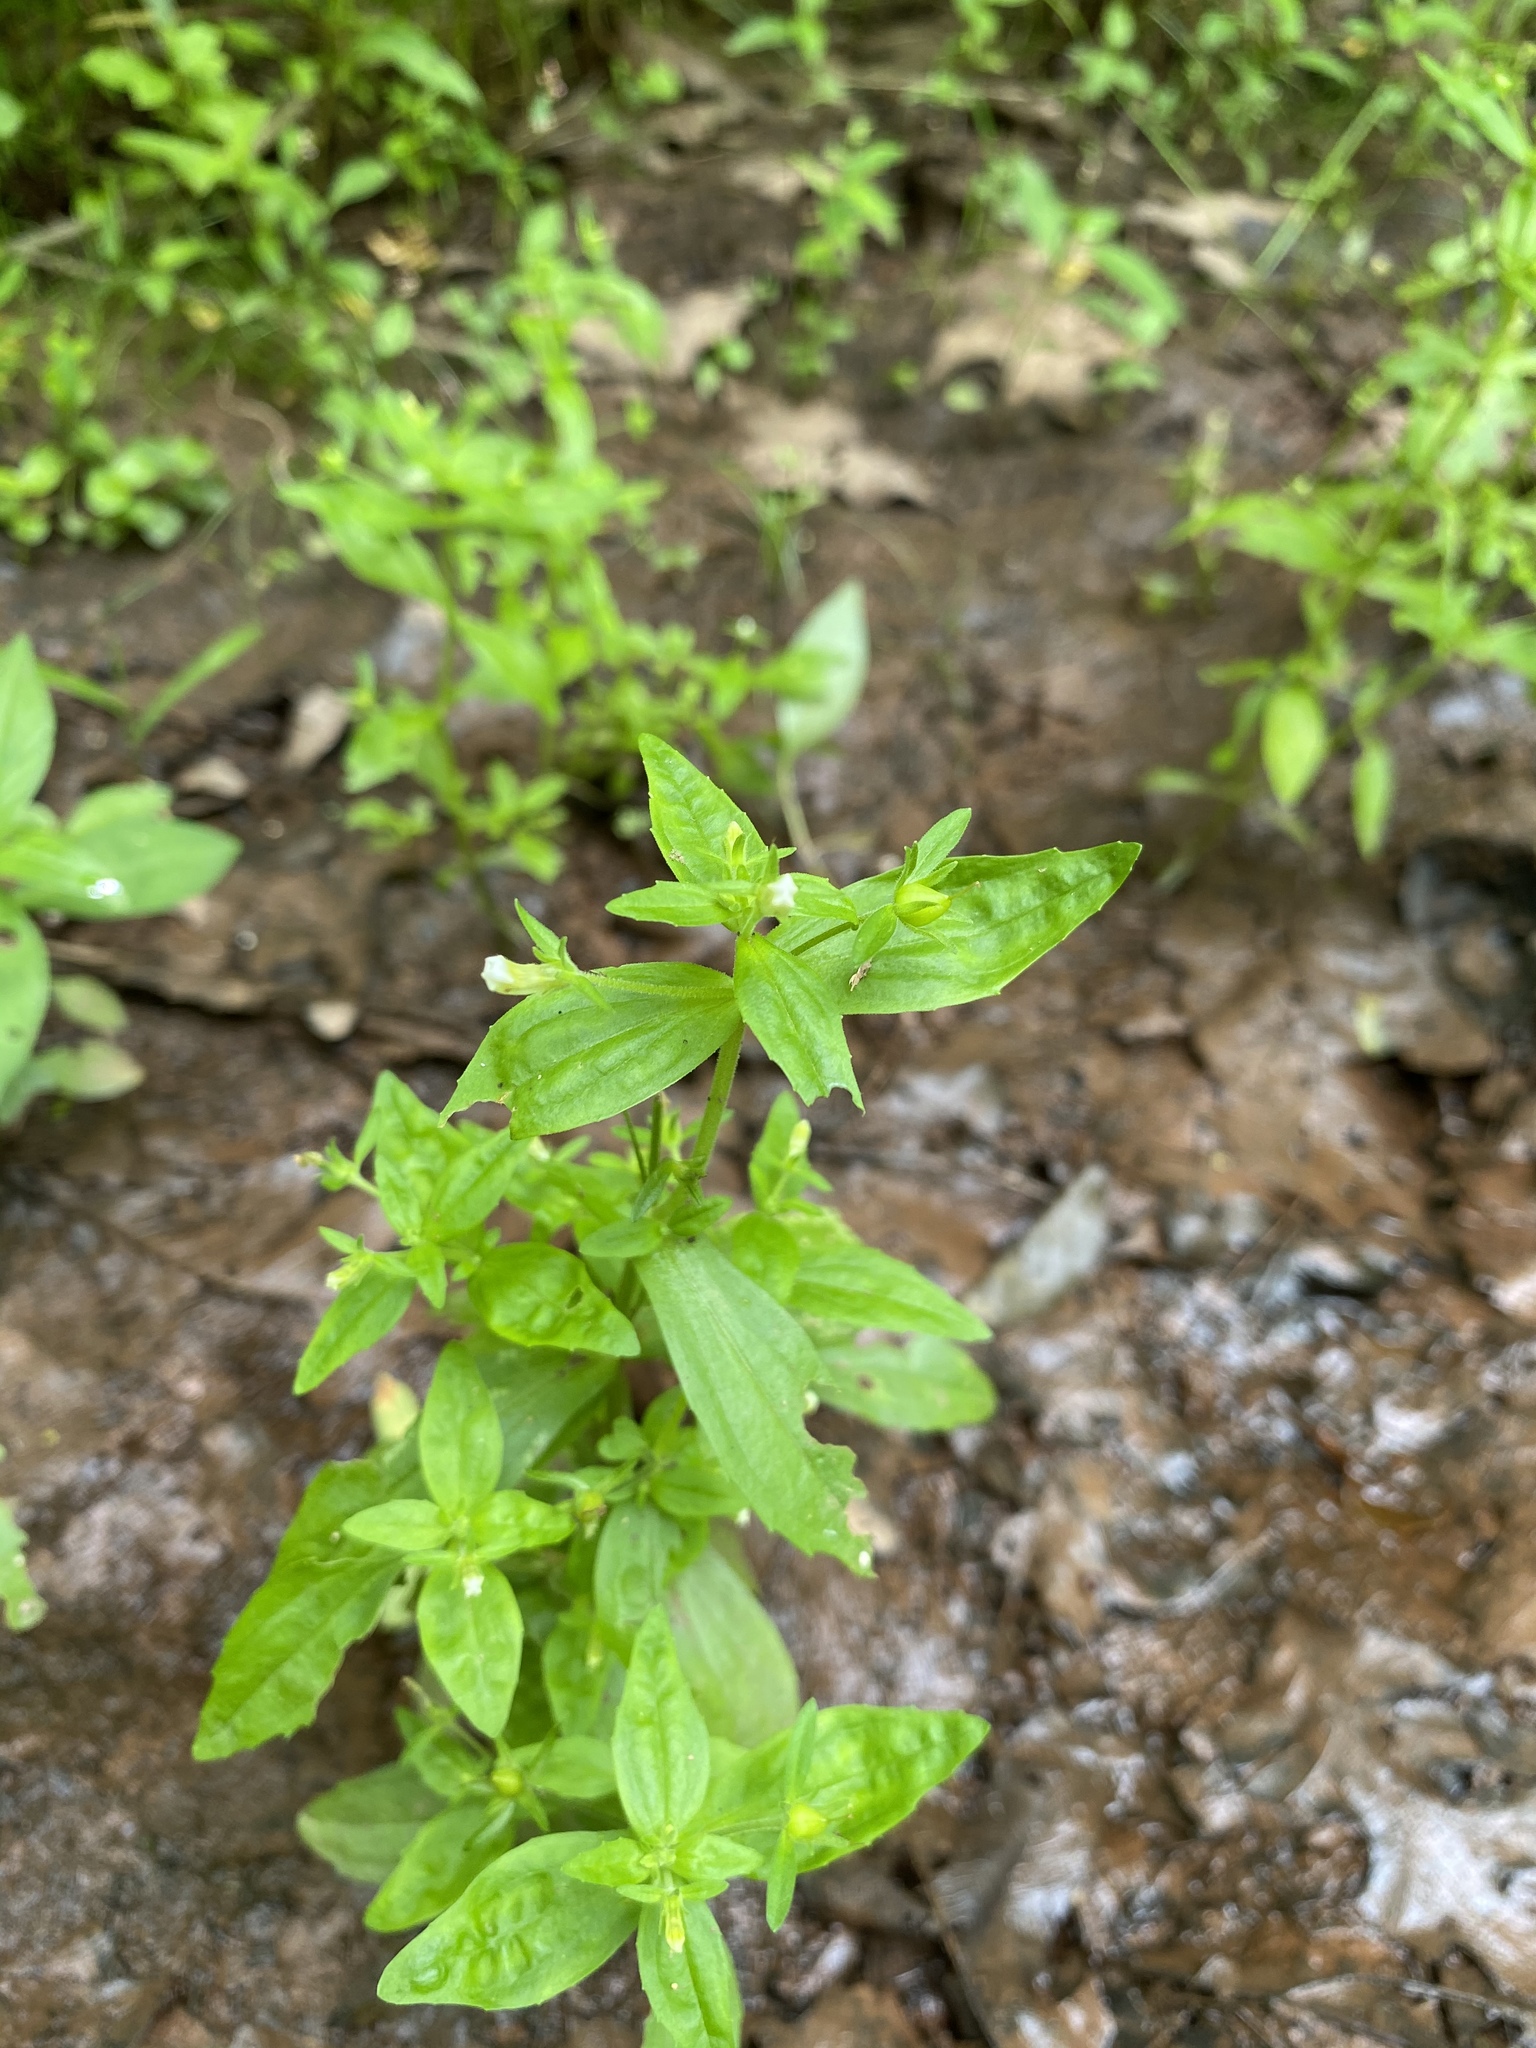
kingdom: Plantae
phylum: Tracheophyta
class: Magnoliopsida
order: Lamiales
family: Plantaginaceae
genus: Gratiola
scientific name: Gratiola neglecta
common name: American hedge-hyssop
